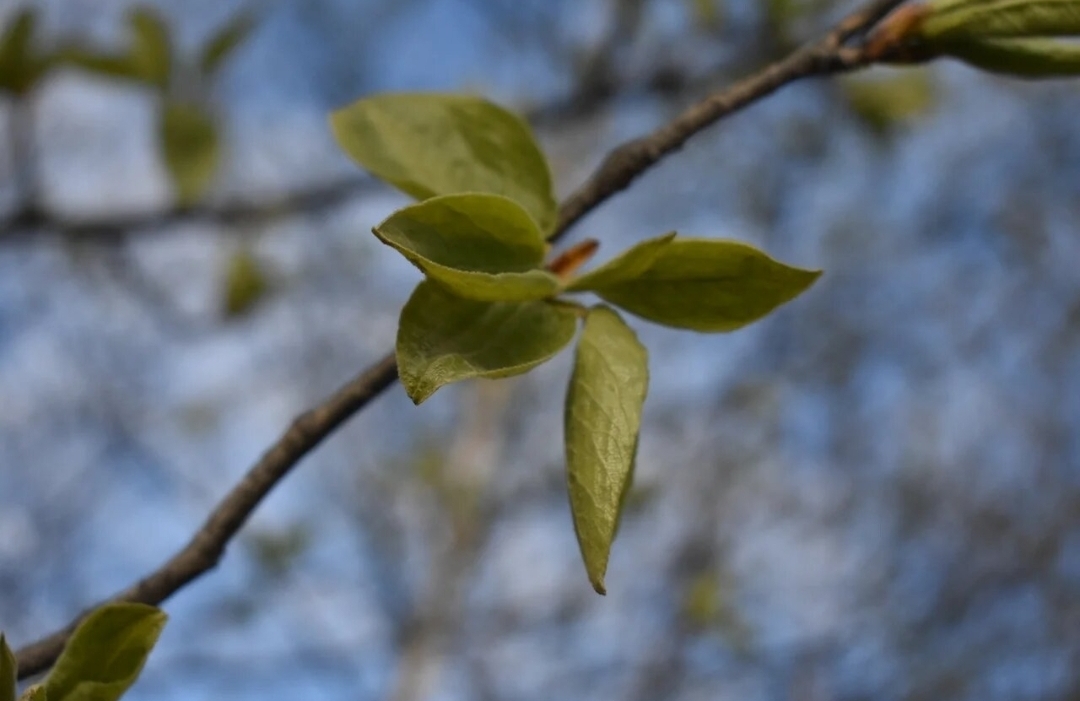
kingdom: Plantae
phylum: Tracheophyta
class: Magnoliopsida
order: Malpighiales
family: Salicaceae
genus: Populus
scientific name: Populus suaveolens
